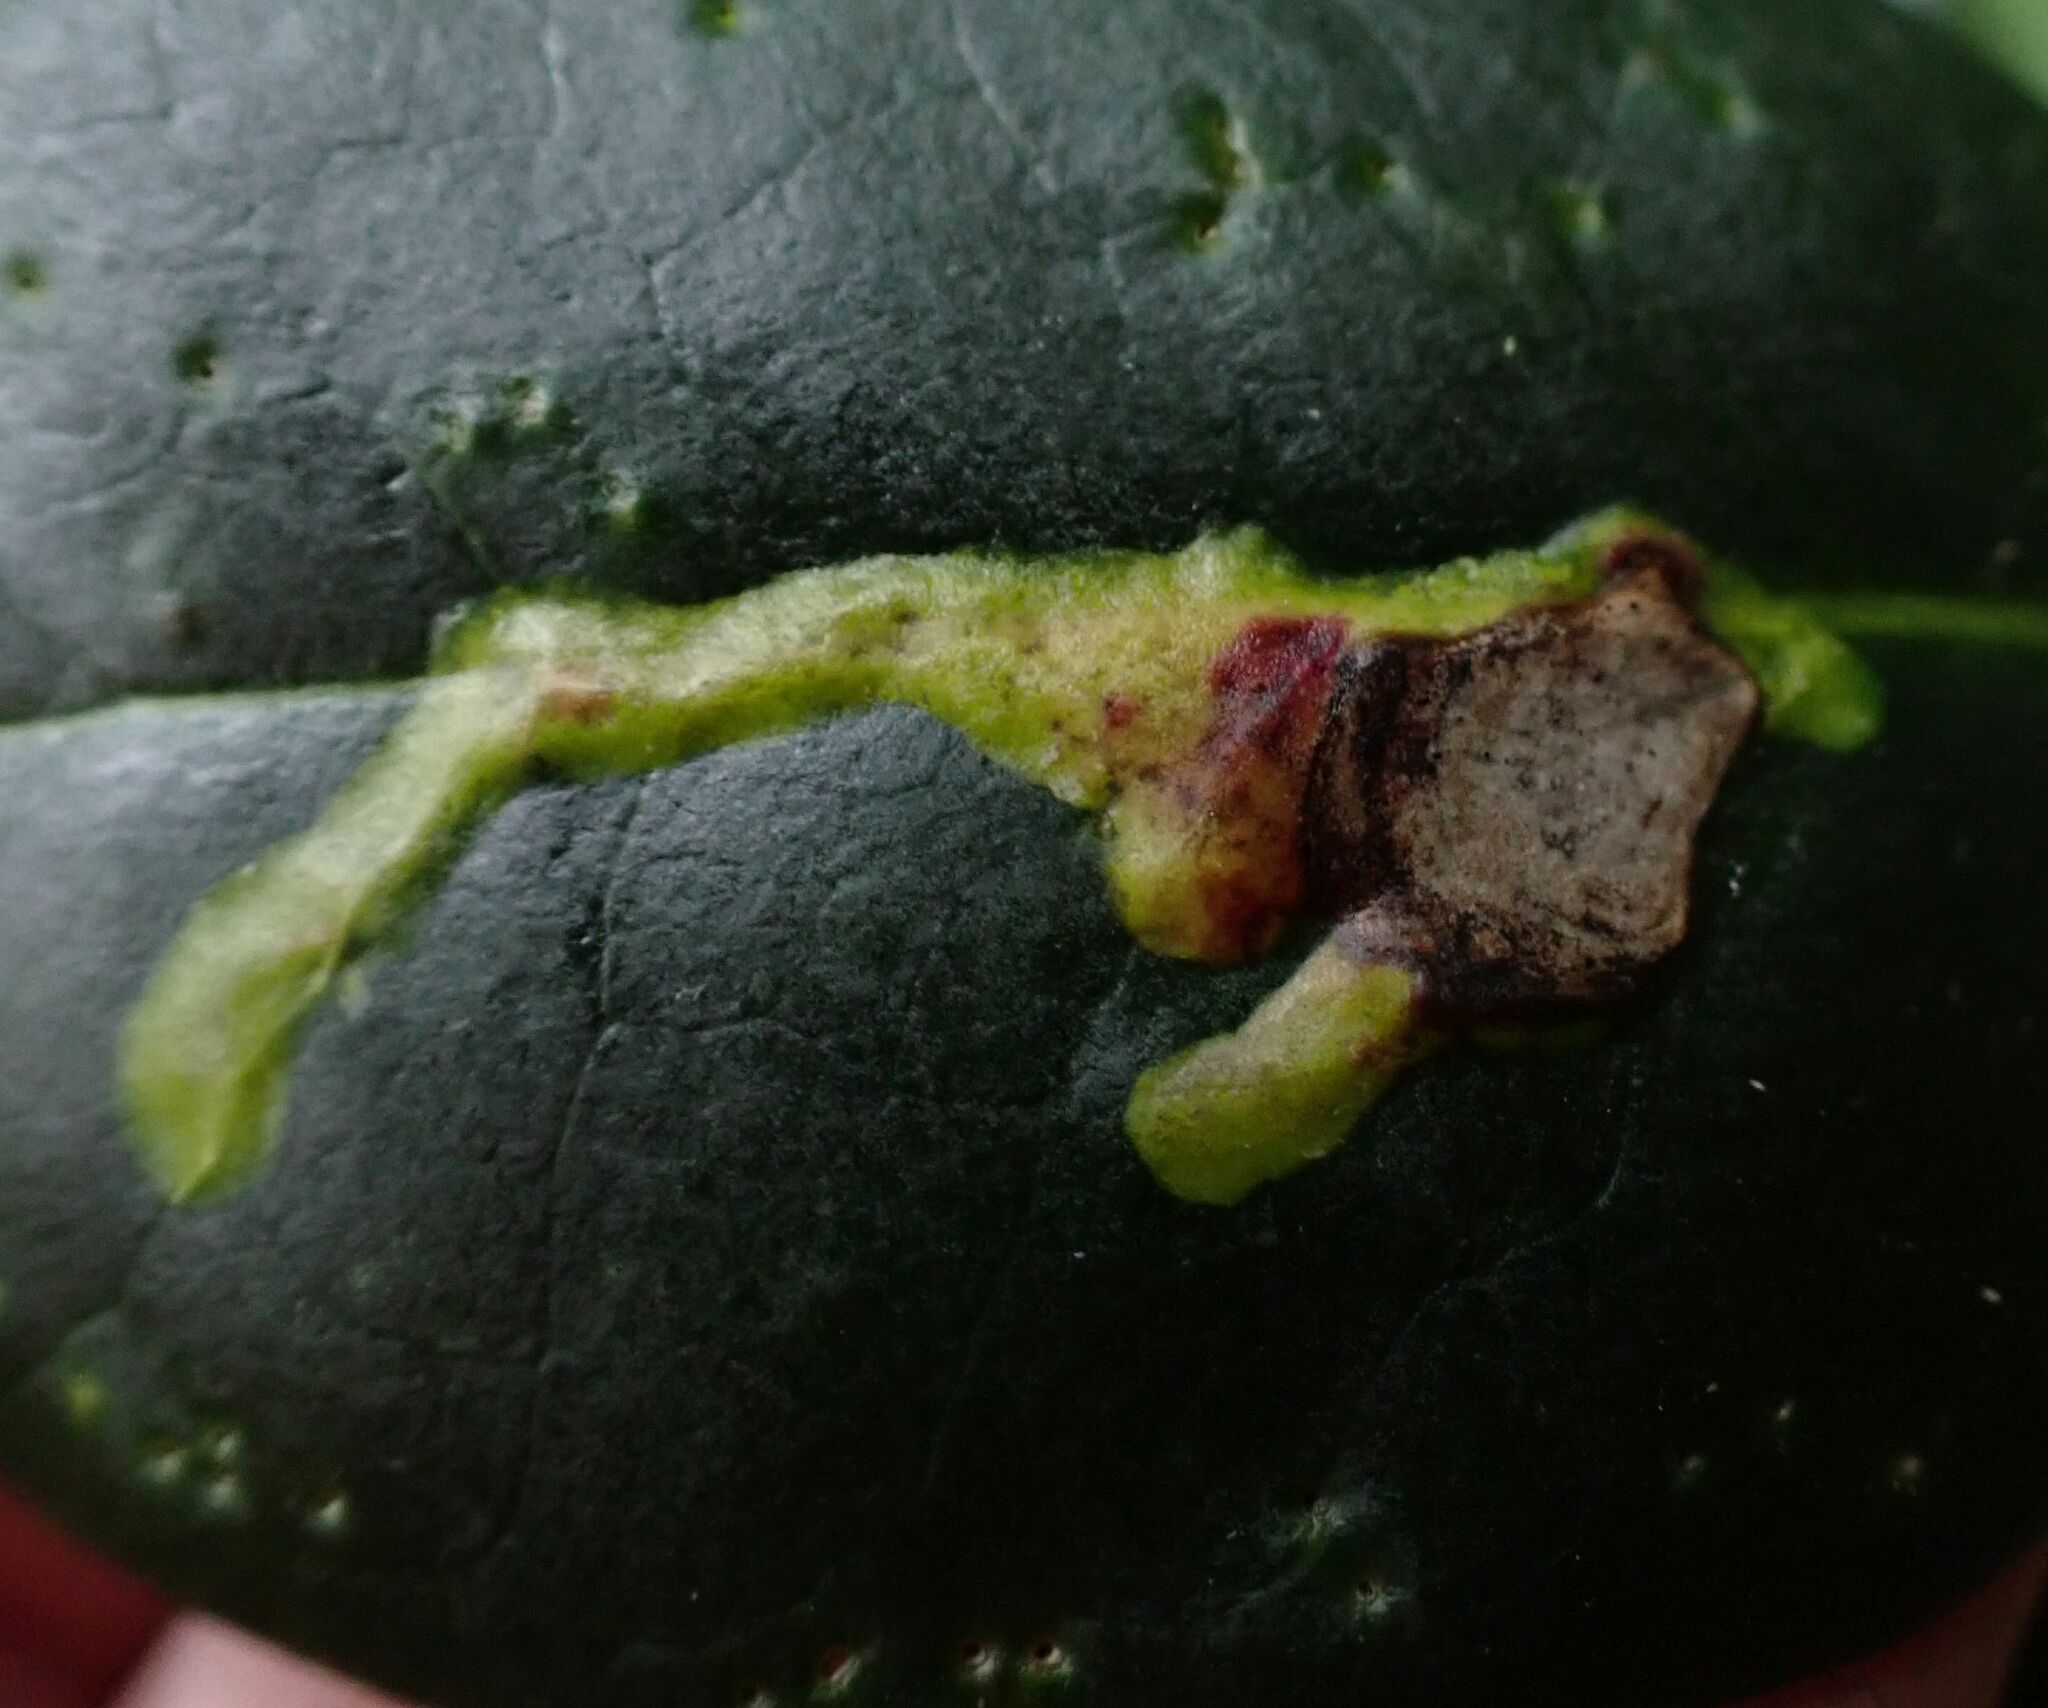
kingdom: Animalia
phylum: Arthropoda
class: Insecta
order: Diptera
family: Agromyzidae
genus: Phytomyza
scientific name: Phytomyza ilicis
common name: Holly leafminer
